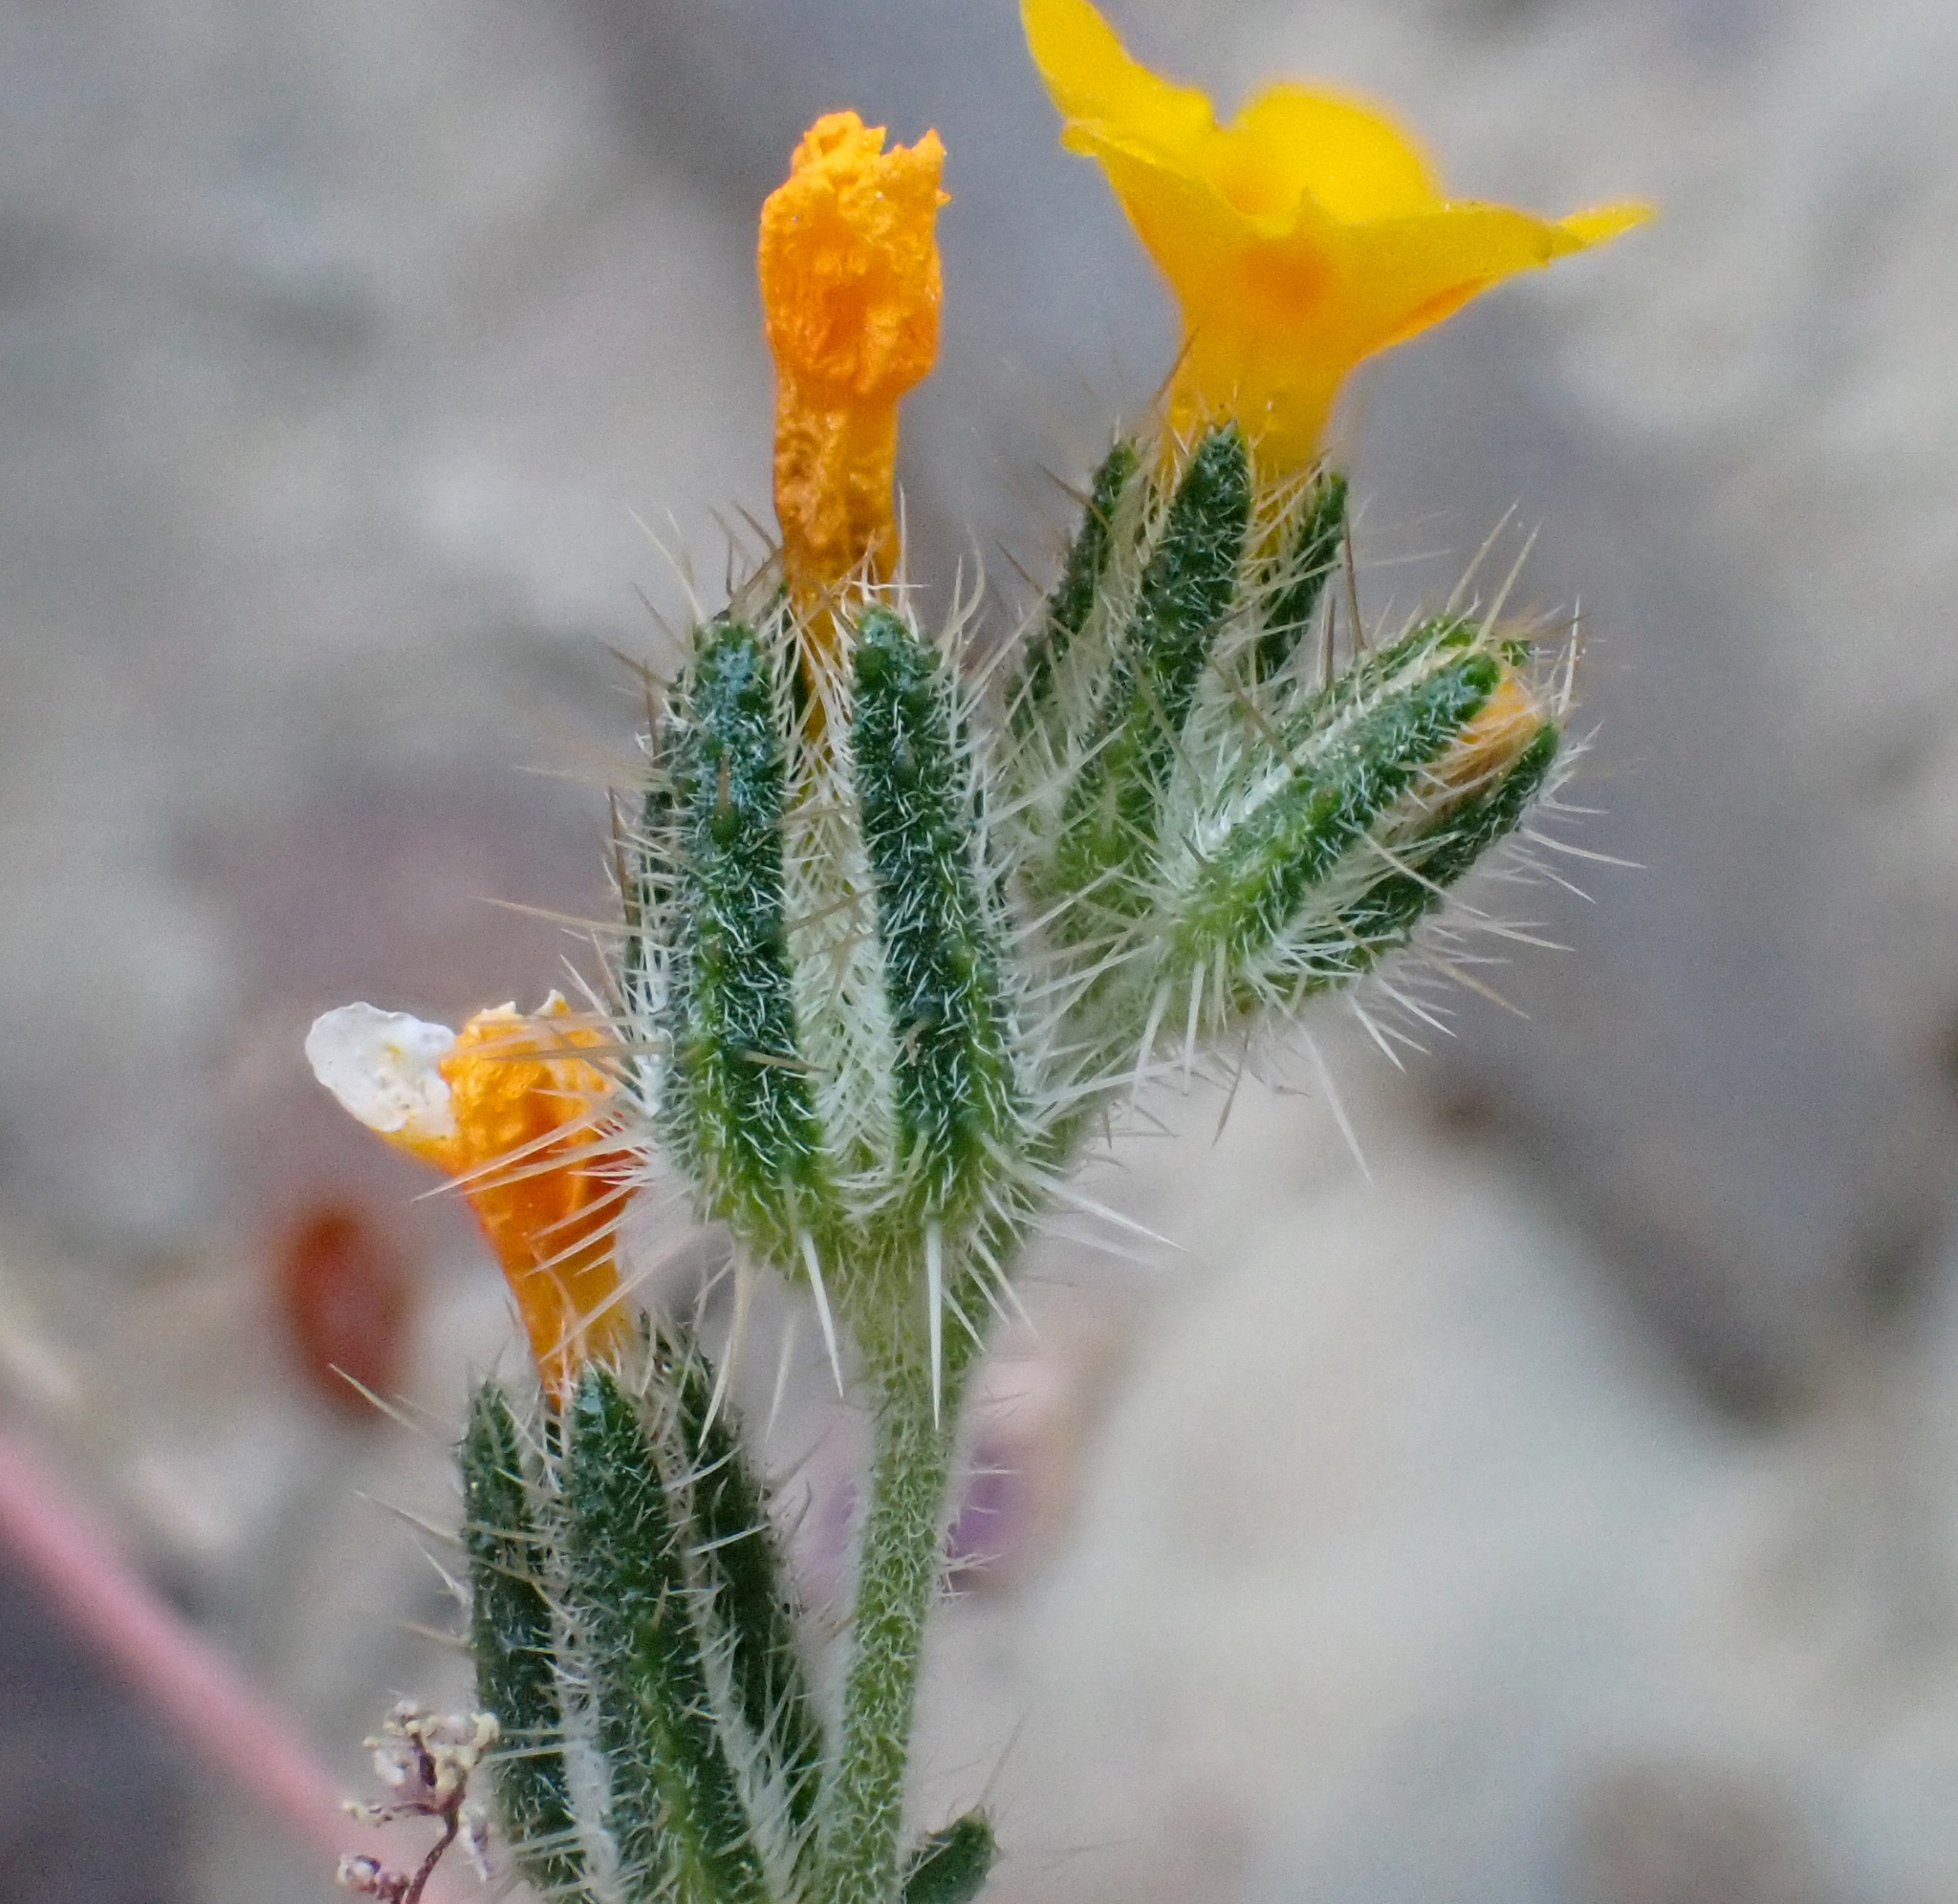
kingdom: Plantae
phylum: Tracheophyta
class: Magnoliopsida
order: Boraginales
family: Boraginaceae
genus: Amsinckia
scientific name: Amsinckia menziesii
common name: Menzies' fiddleneck
